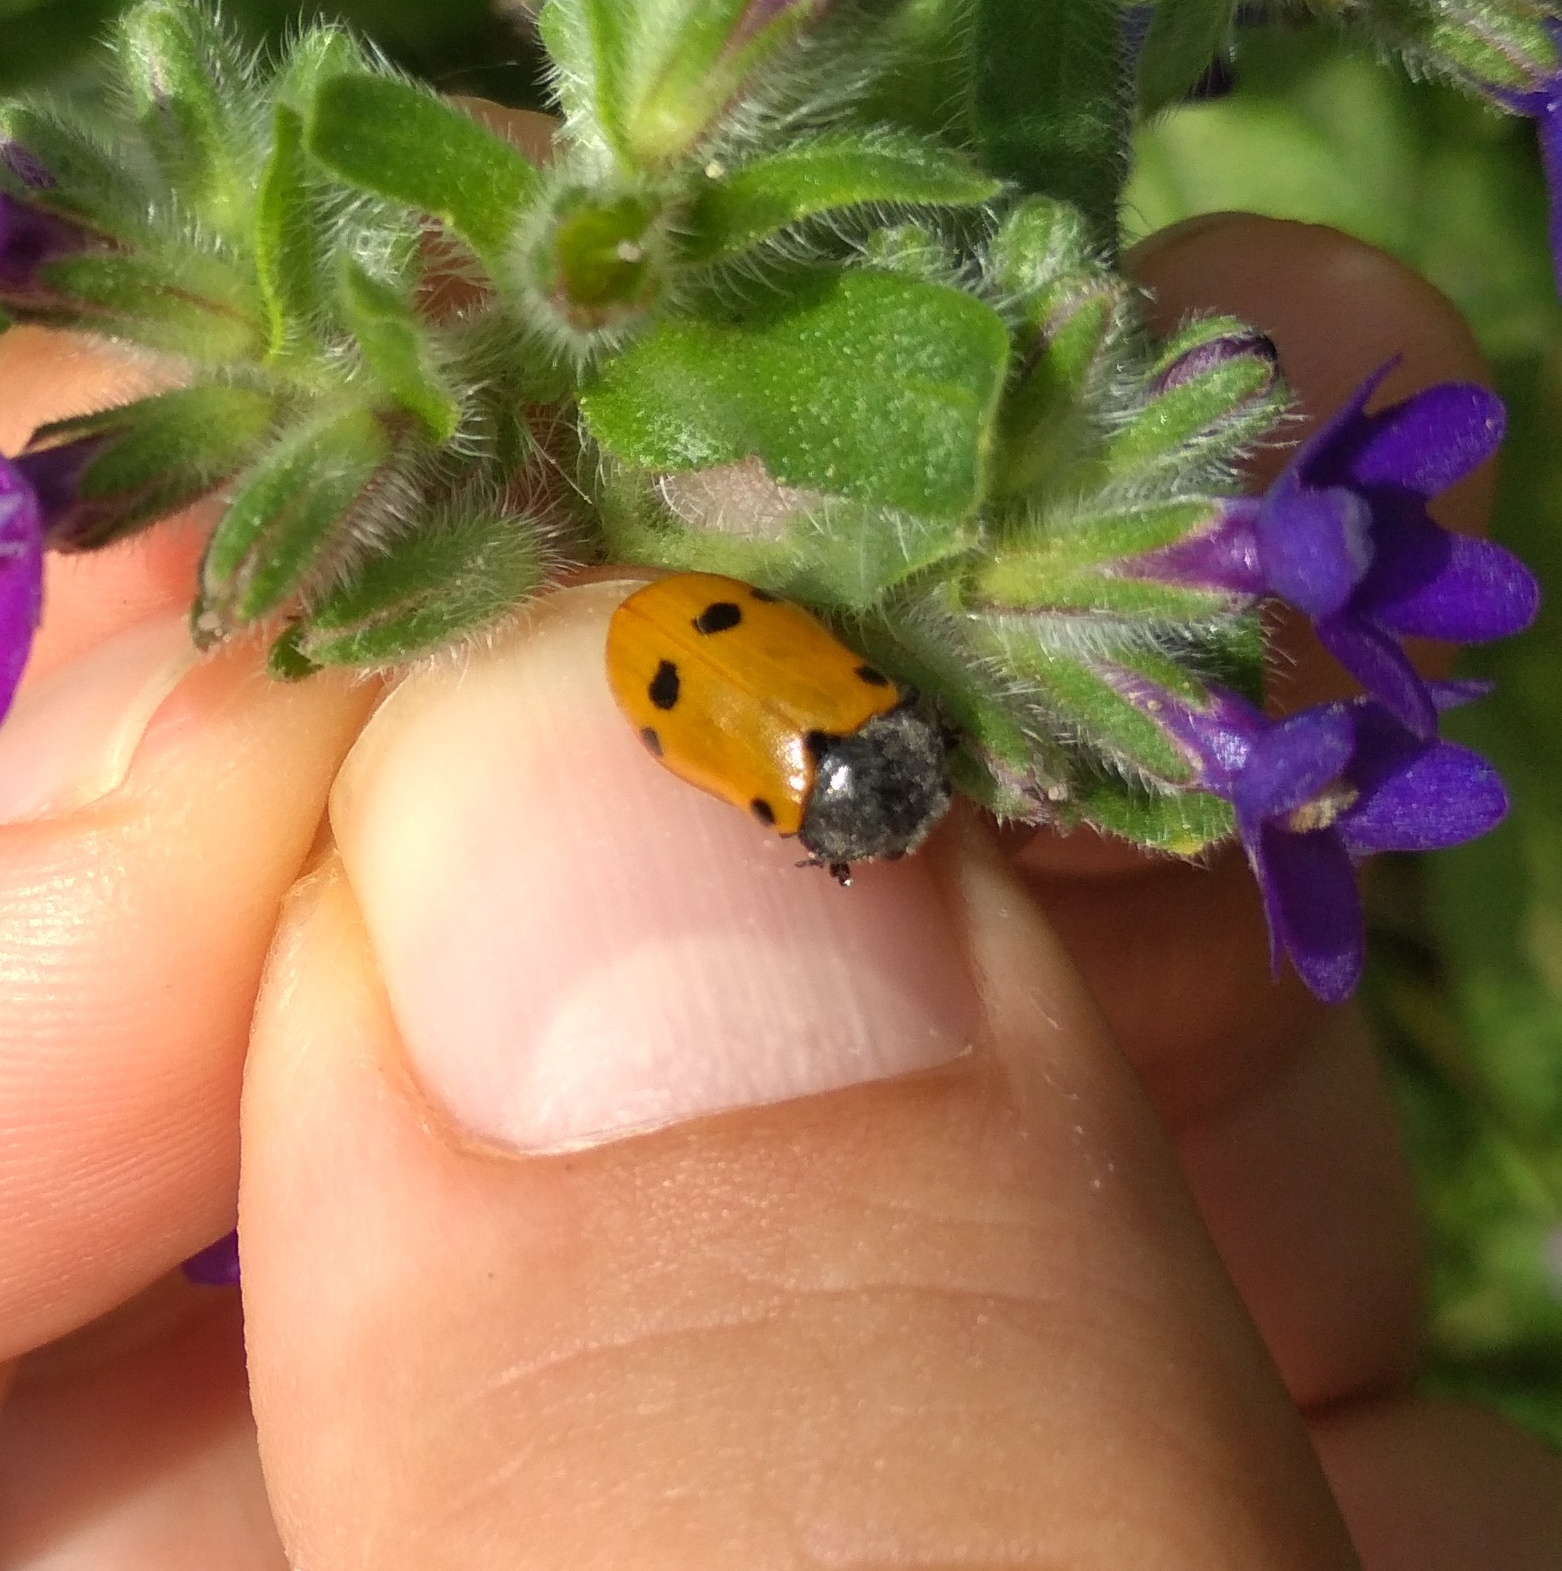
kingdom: Animalia
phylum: Arthropoda
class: Insecta
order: Coleoptera
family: Chrysomelidae
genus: Lachnaia
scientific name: Lachnaia italica
